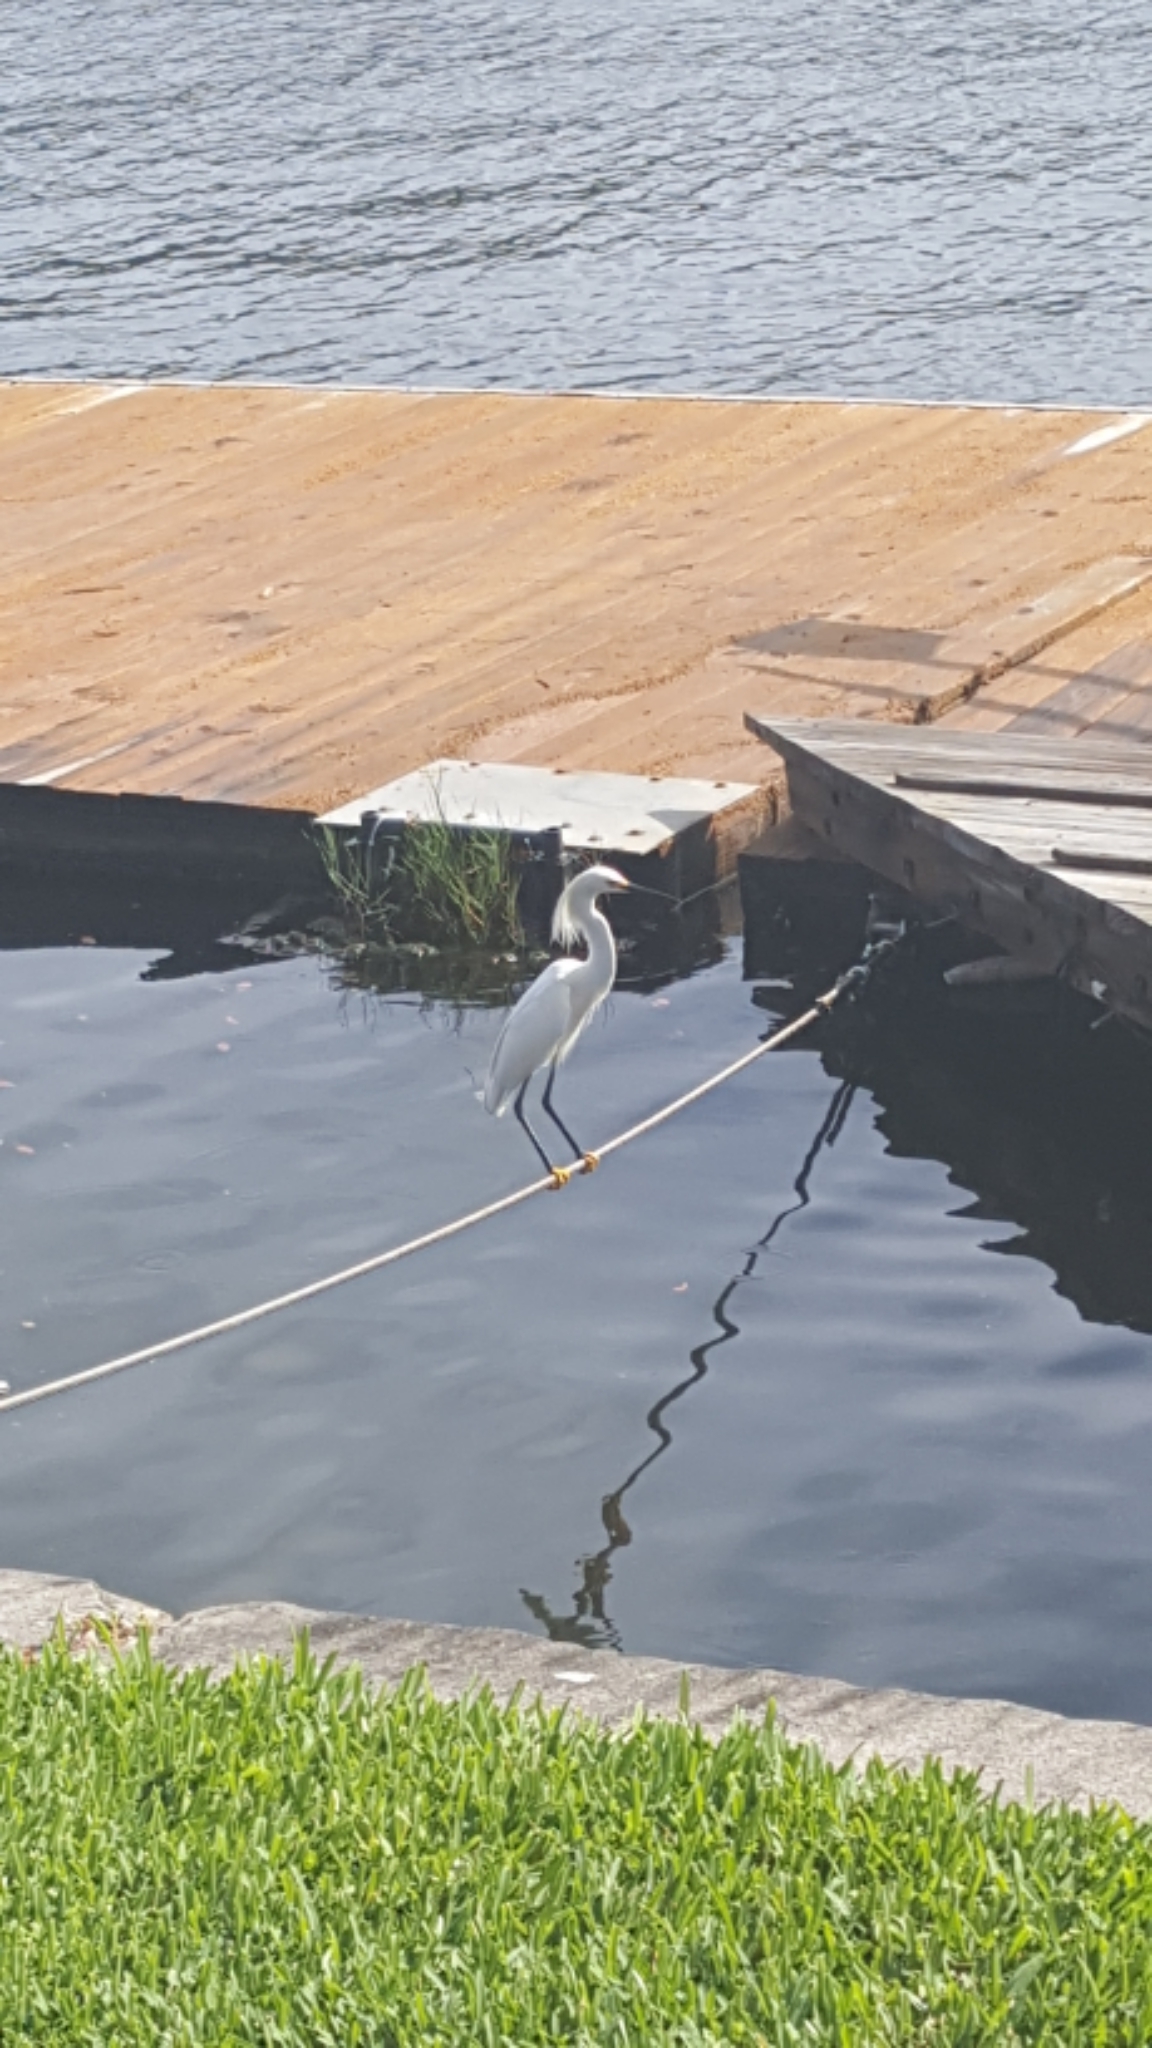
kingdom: Animalia
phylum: Chordata
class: Aves
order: Pelecaniformes
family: Ardeidae
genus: Egretta
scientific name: Egretta thula
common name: Snowy egret
